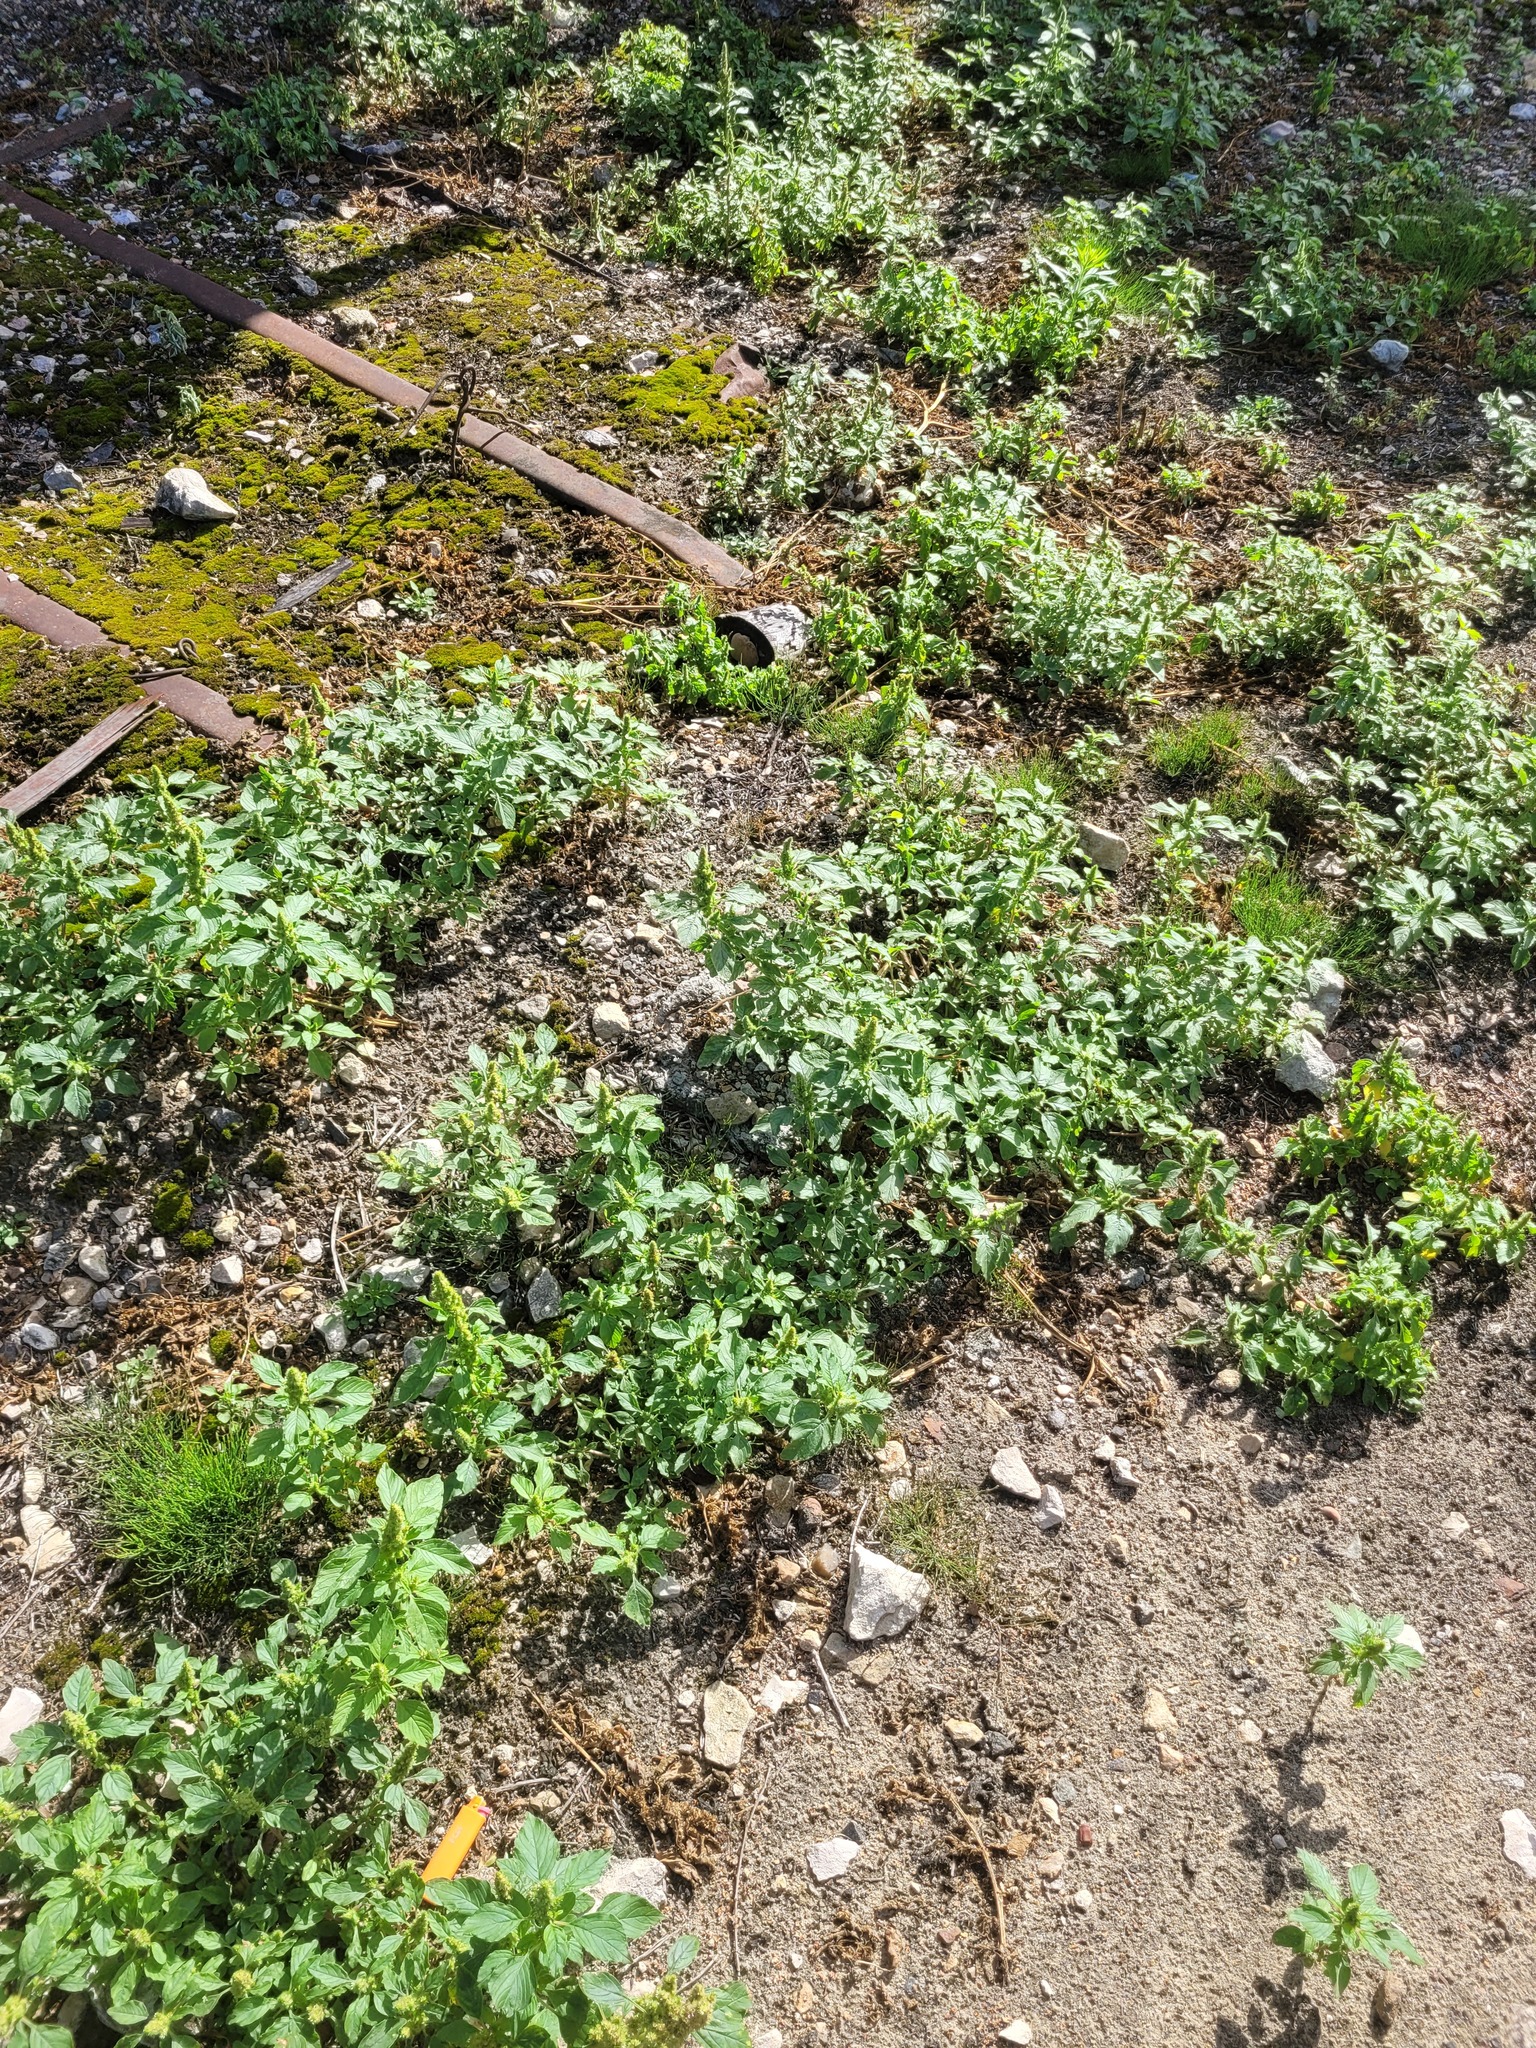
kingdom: Plantae
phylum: Tracheophyta
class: Magnoliopsida
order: Caryophyllales
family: Amaranthaceae
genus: Amaranthus
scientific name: Amaranthus retroflexus
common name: Redroot amaranth
